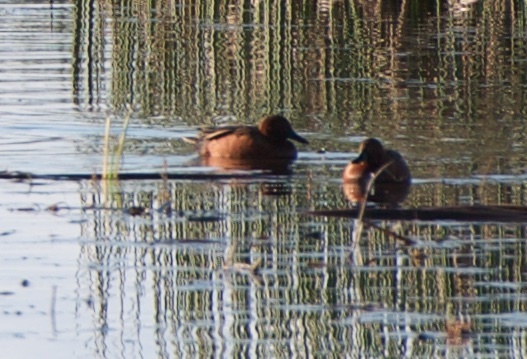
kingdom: Animalia
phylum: Chordata
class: Aves
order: Anseriformes
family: Anatidae
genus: Spatula
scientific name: Spatula cyanoptera
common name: Cinnamon teal
